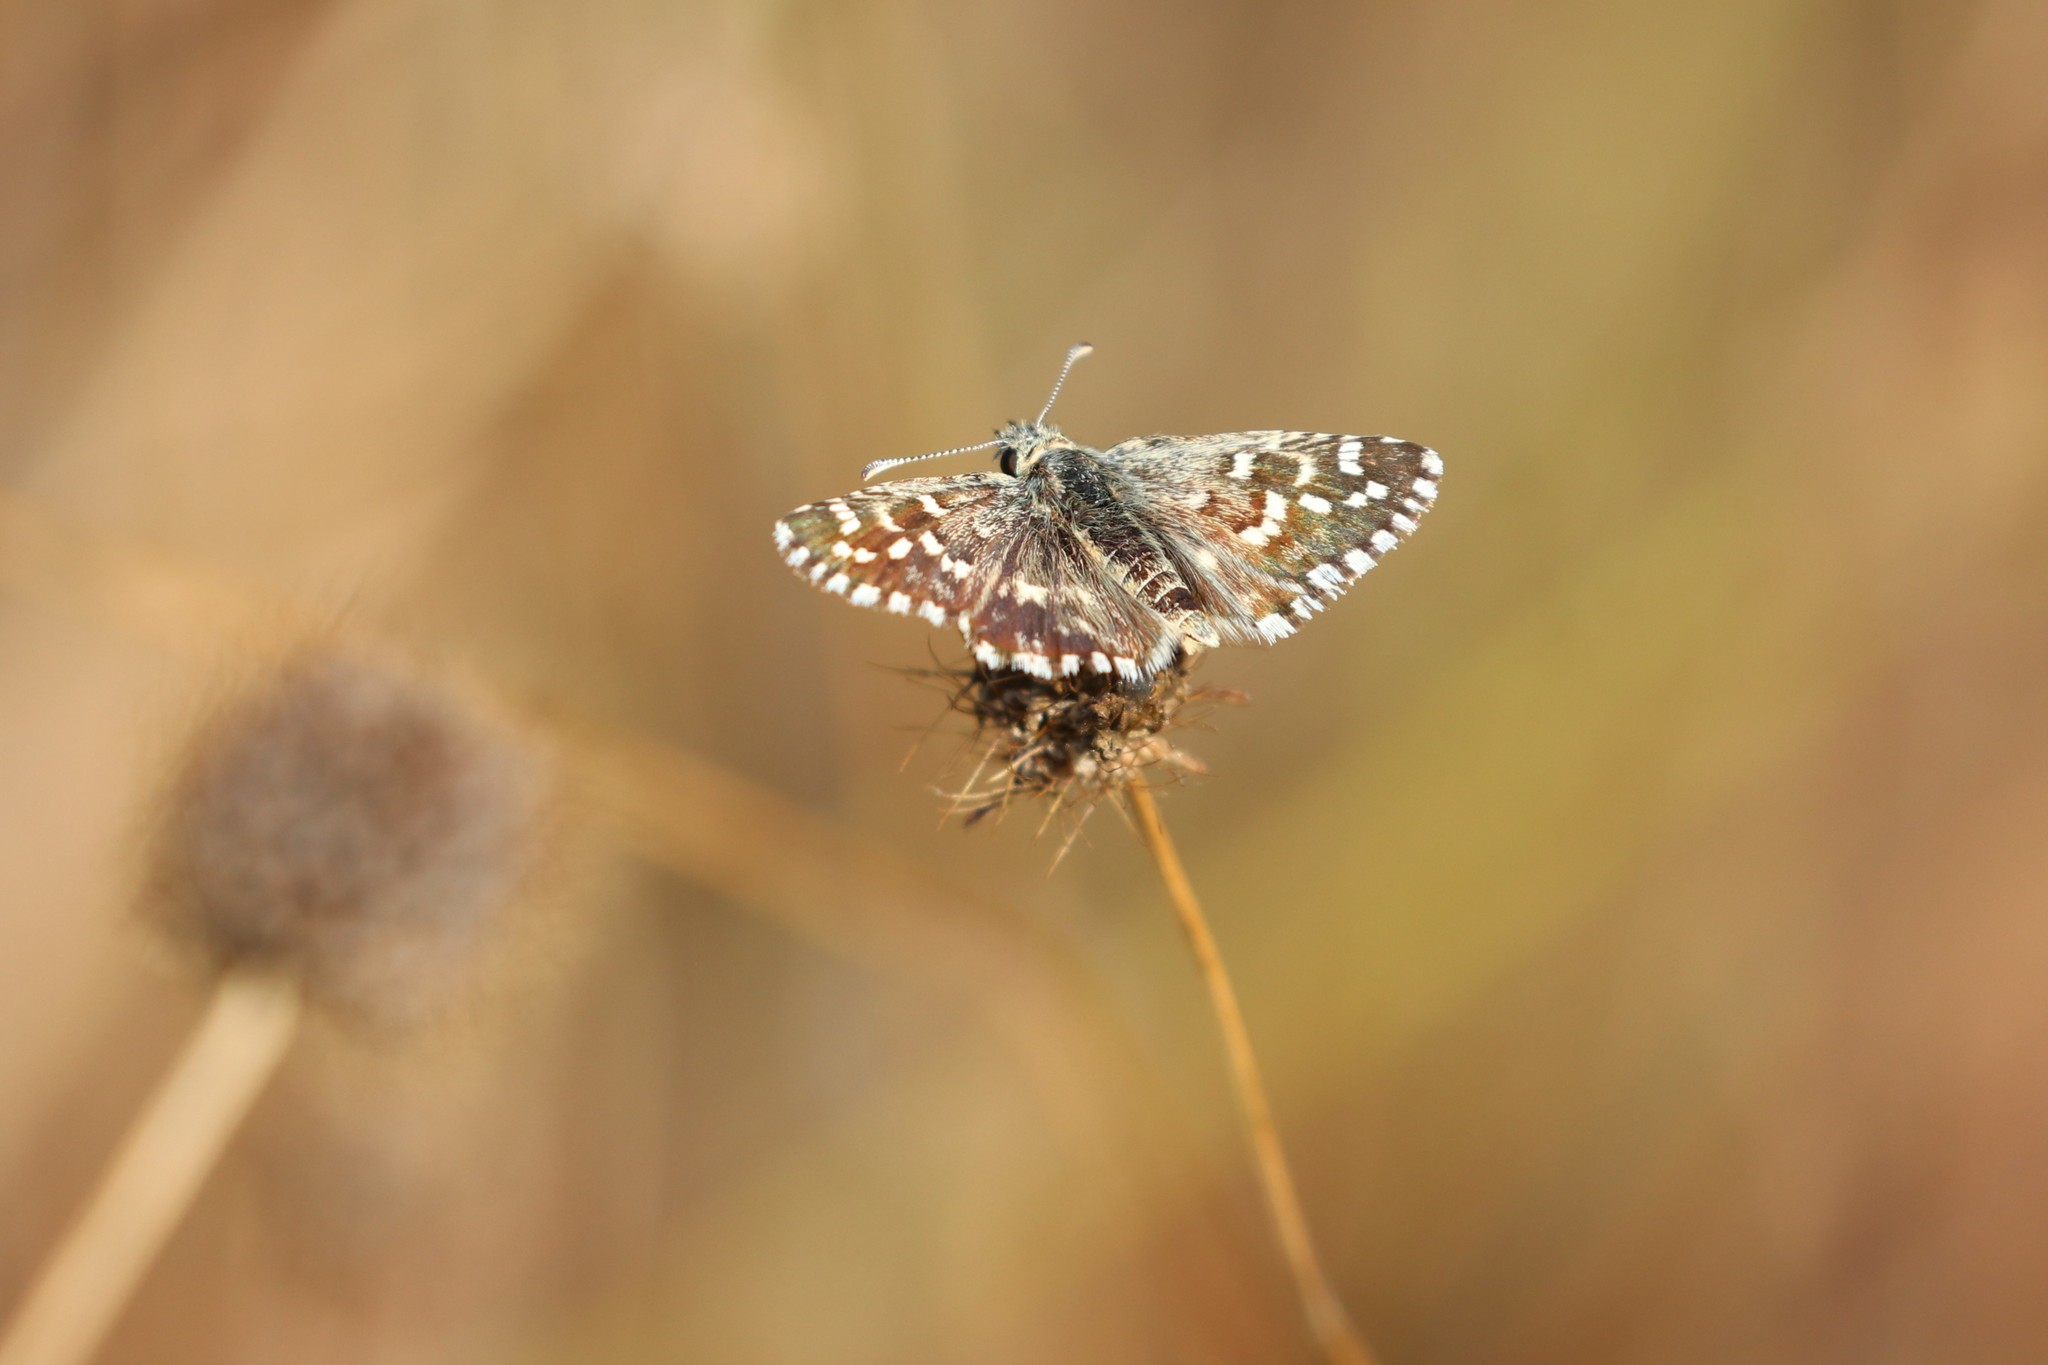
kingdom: Animalia
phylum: Arthropoda
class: Insecta
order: Lepidoptera
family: Hesperiidae
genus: Pyrgus
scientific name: Pyrgus malvoides
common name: Southern grizzled skipper
